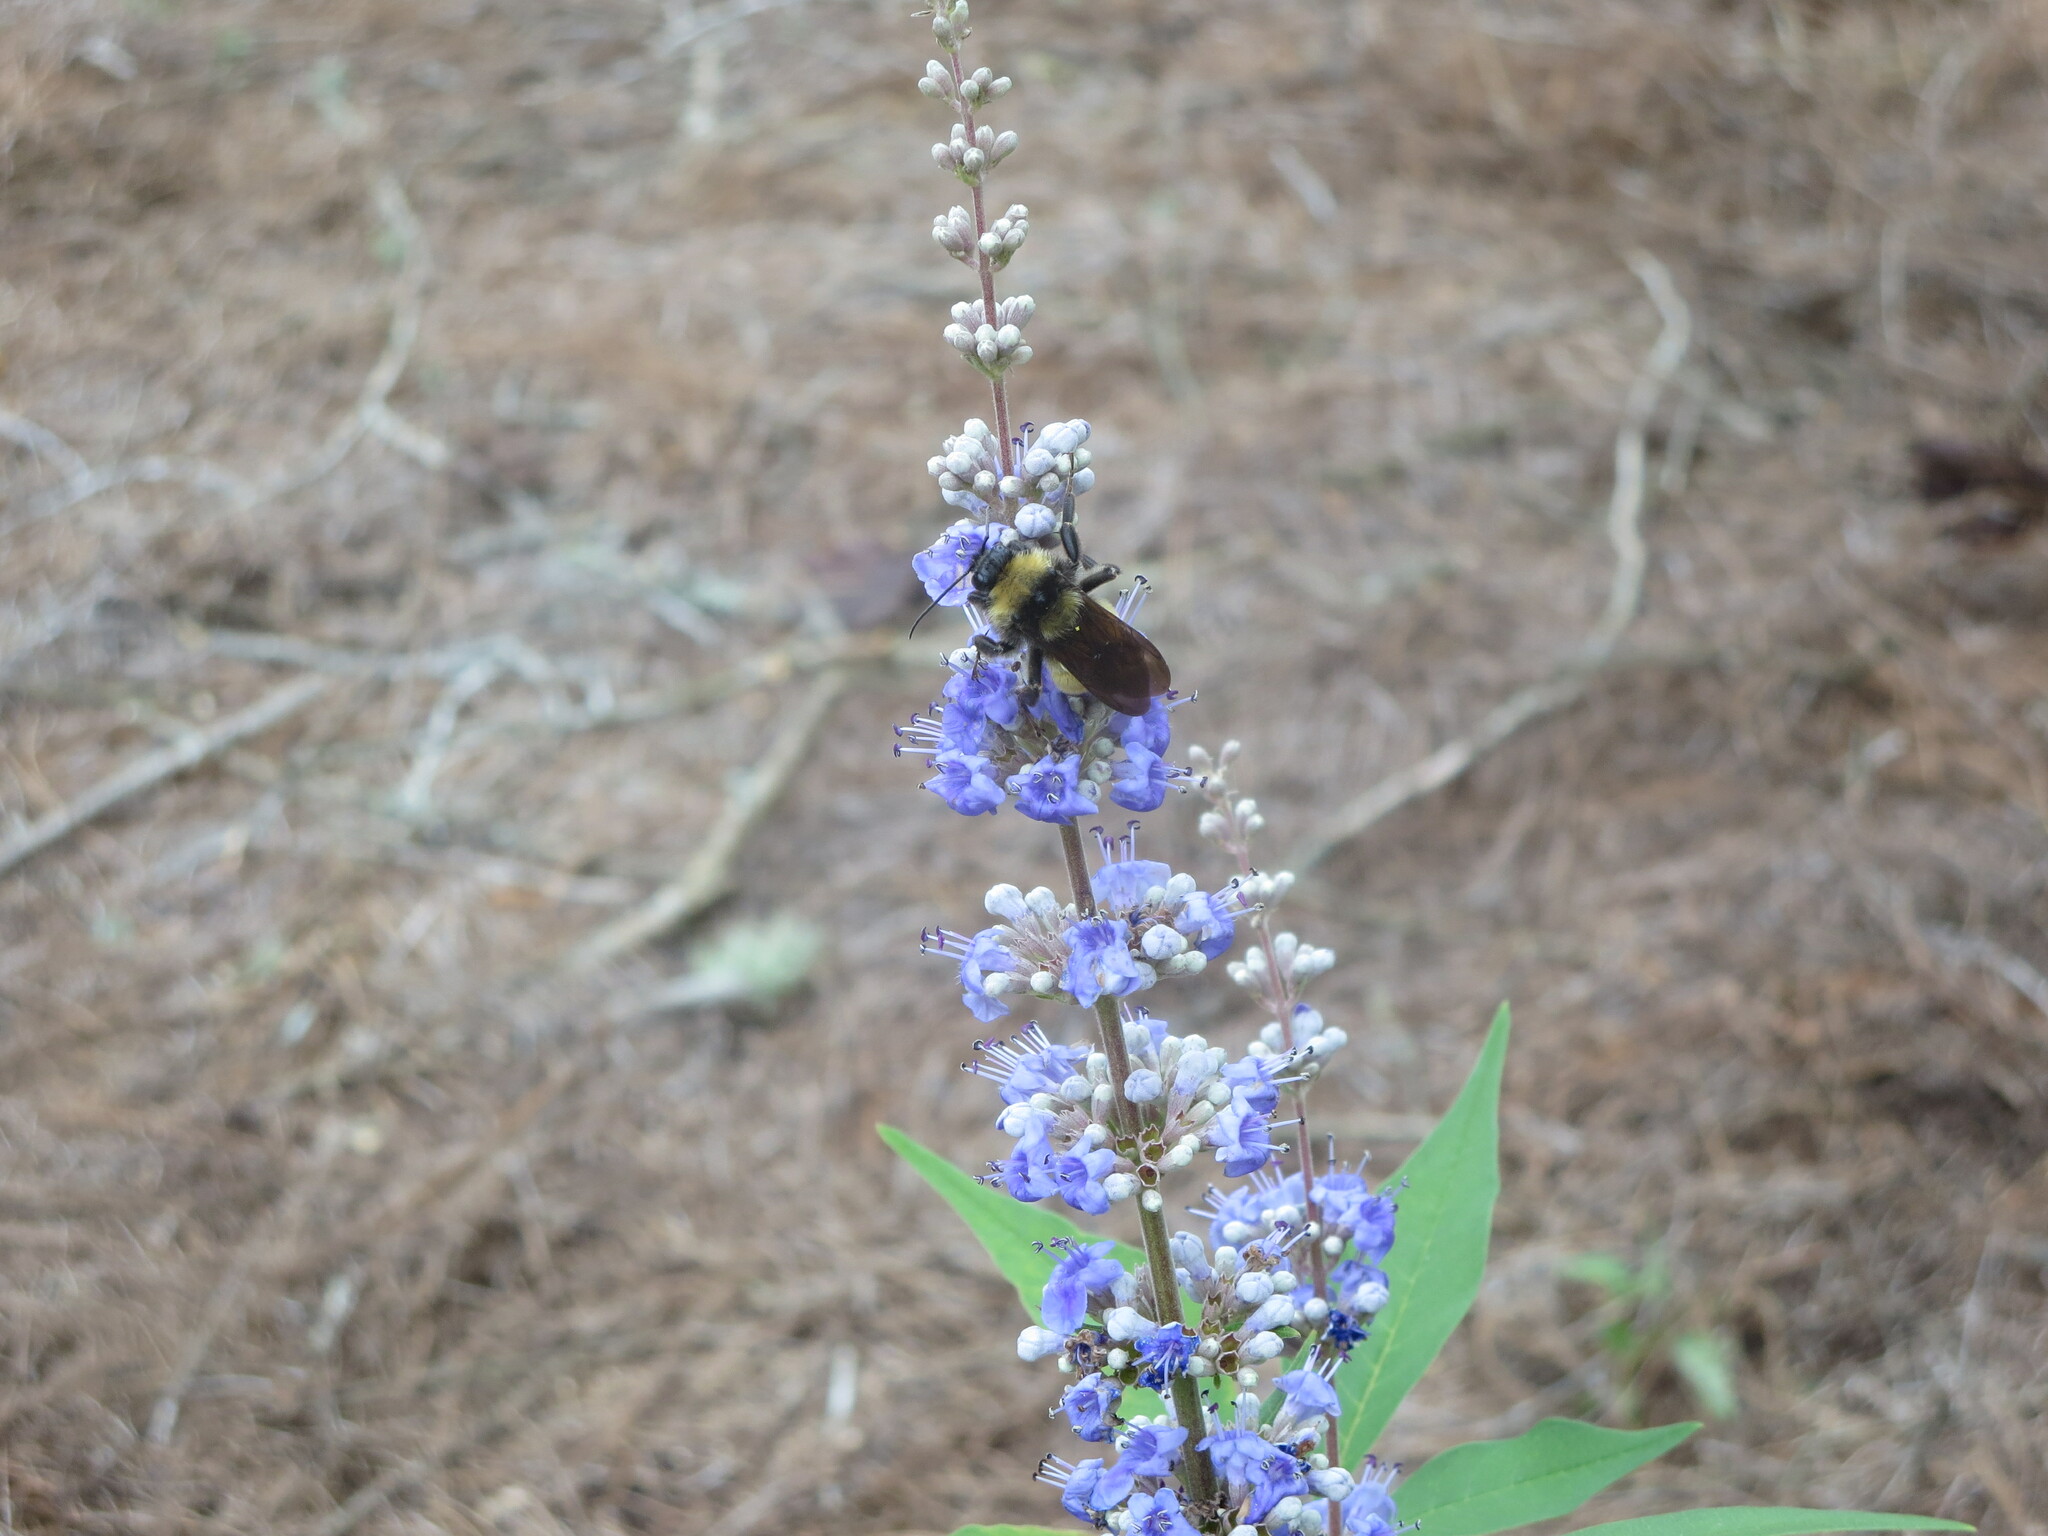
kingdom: Animalia
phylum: Arthropoda
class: Insecta
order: Hymenoptera
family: Apidae
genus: Bombus
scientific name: Bombus pensylvanicus
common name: Bumble bee
